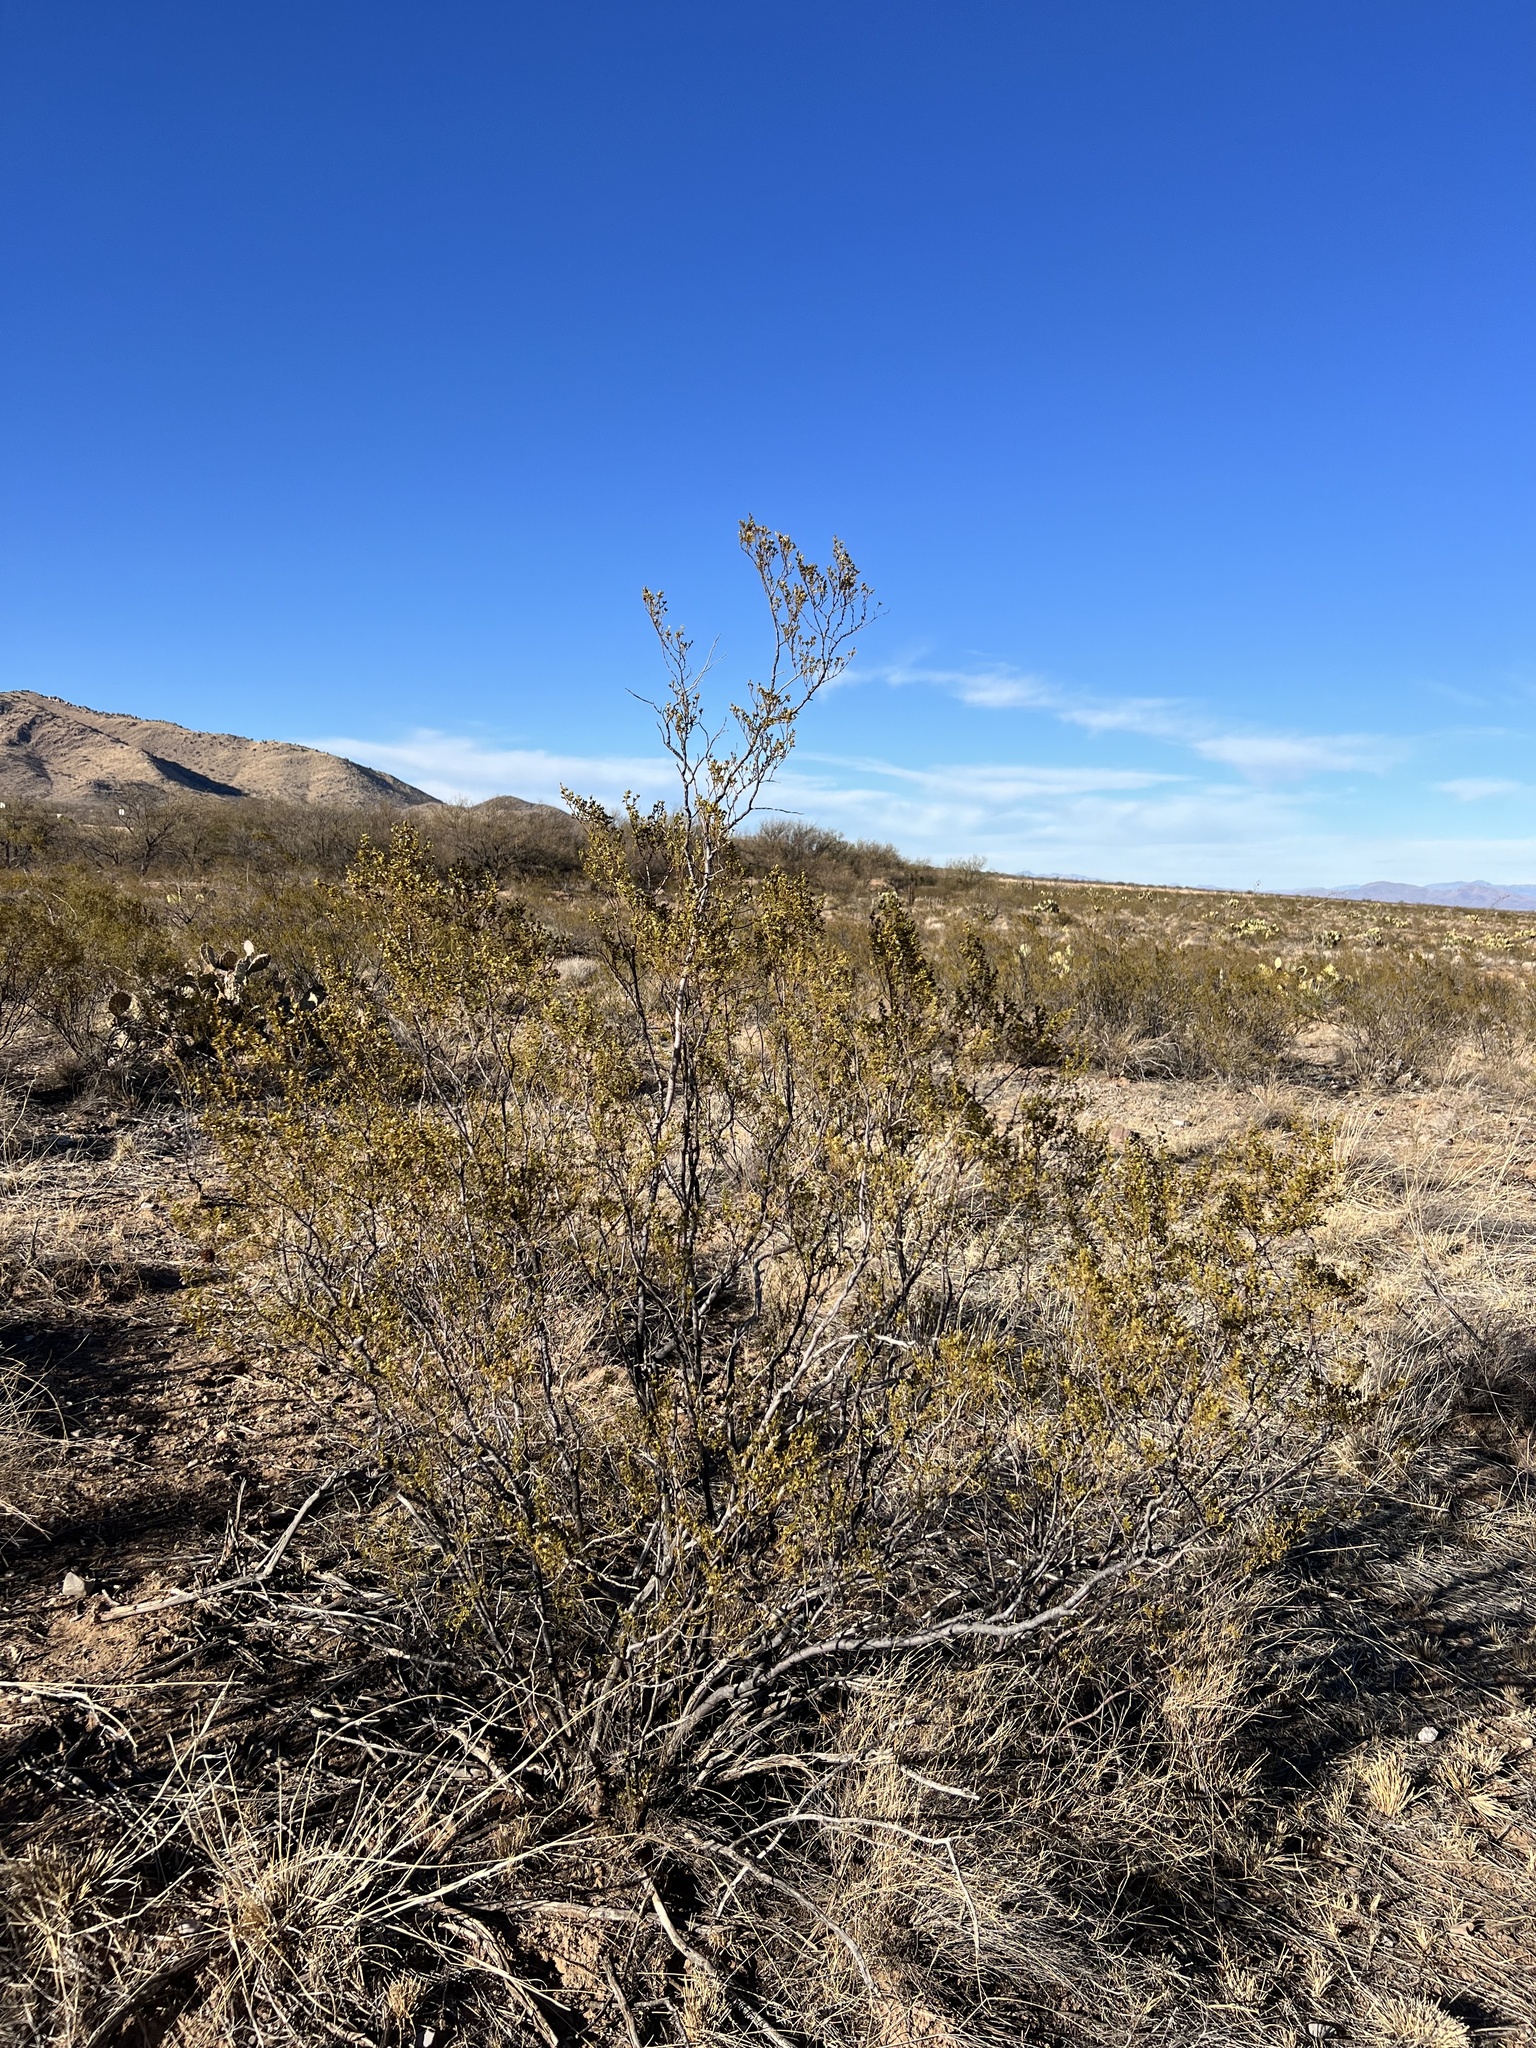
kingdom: Plantae
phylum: Tracheophyta
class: Magnoliopsida
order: Zygophyllales
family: Zygophyllaceae
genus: Larrea
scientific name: Larrea tridentata
